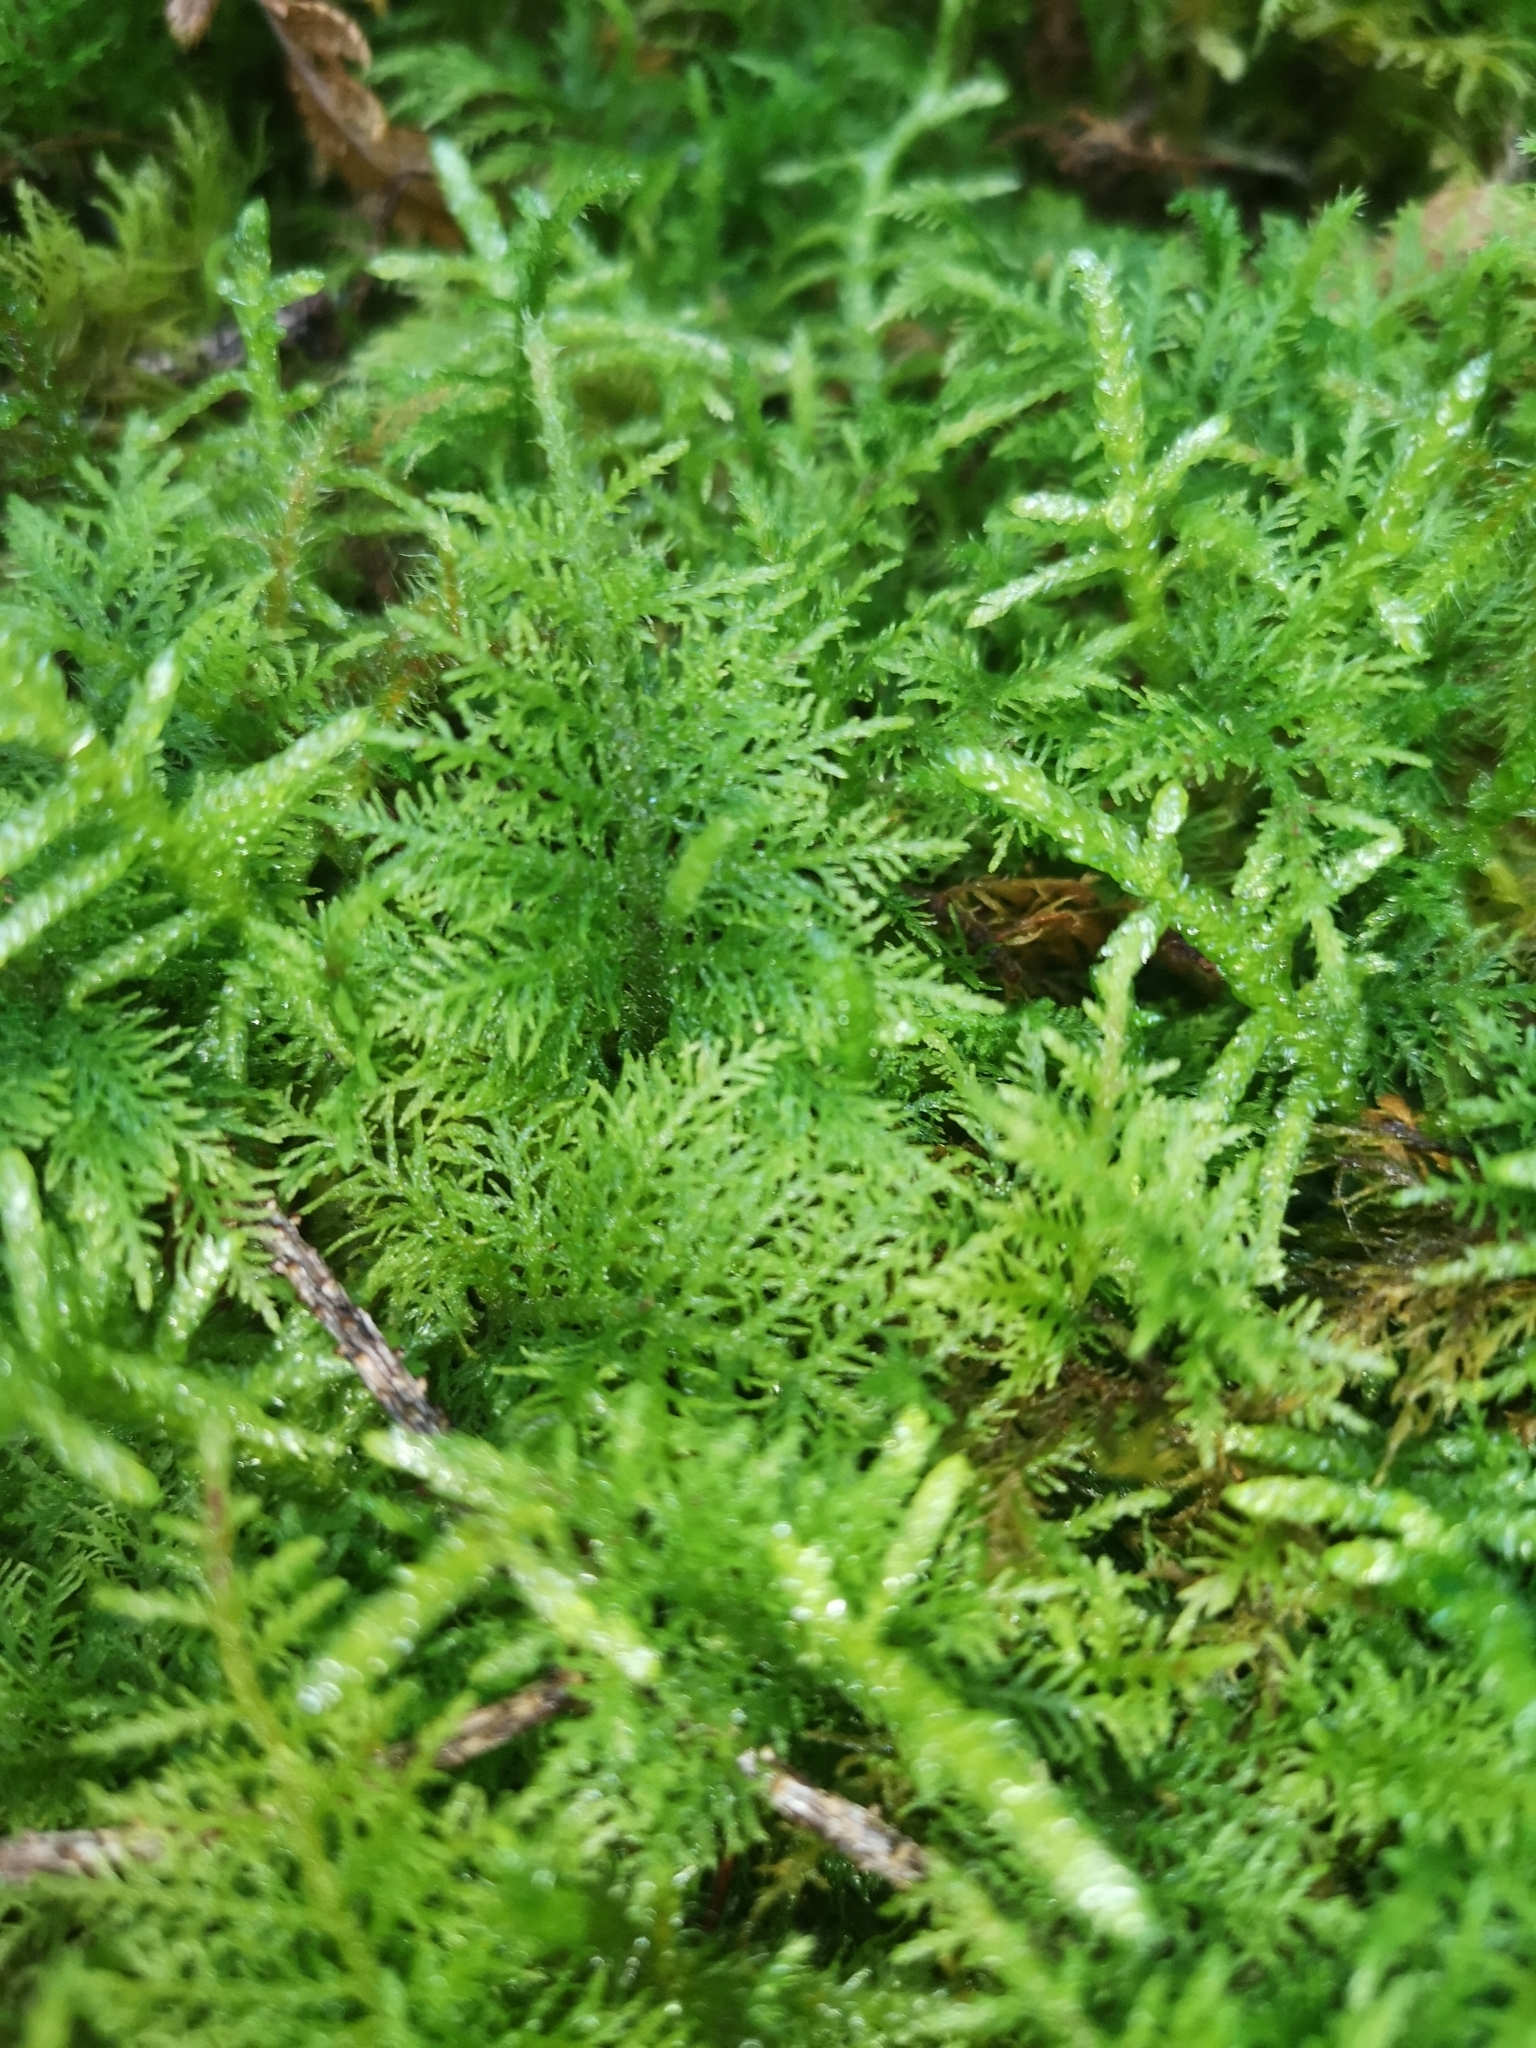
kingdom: Plantae
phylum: Bryophyta
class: Bryopsida
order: Hypnales
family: Thuidiaceae
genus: Thuidium
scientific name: Thuidium tamariscinum
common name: Common tamarisk-moss
